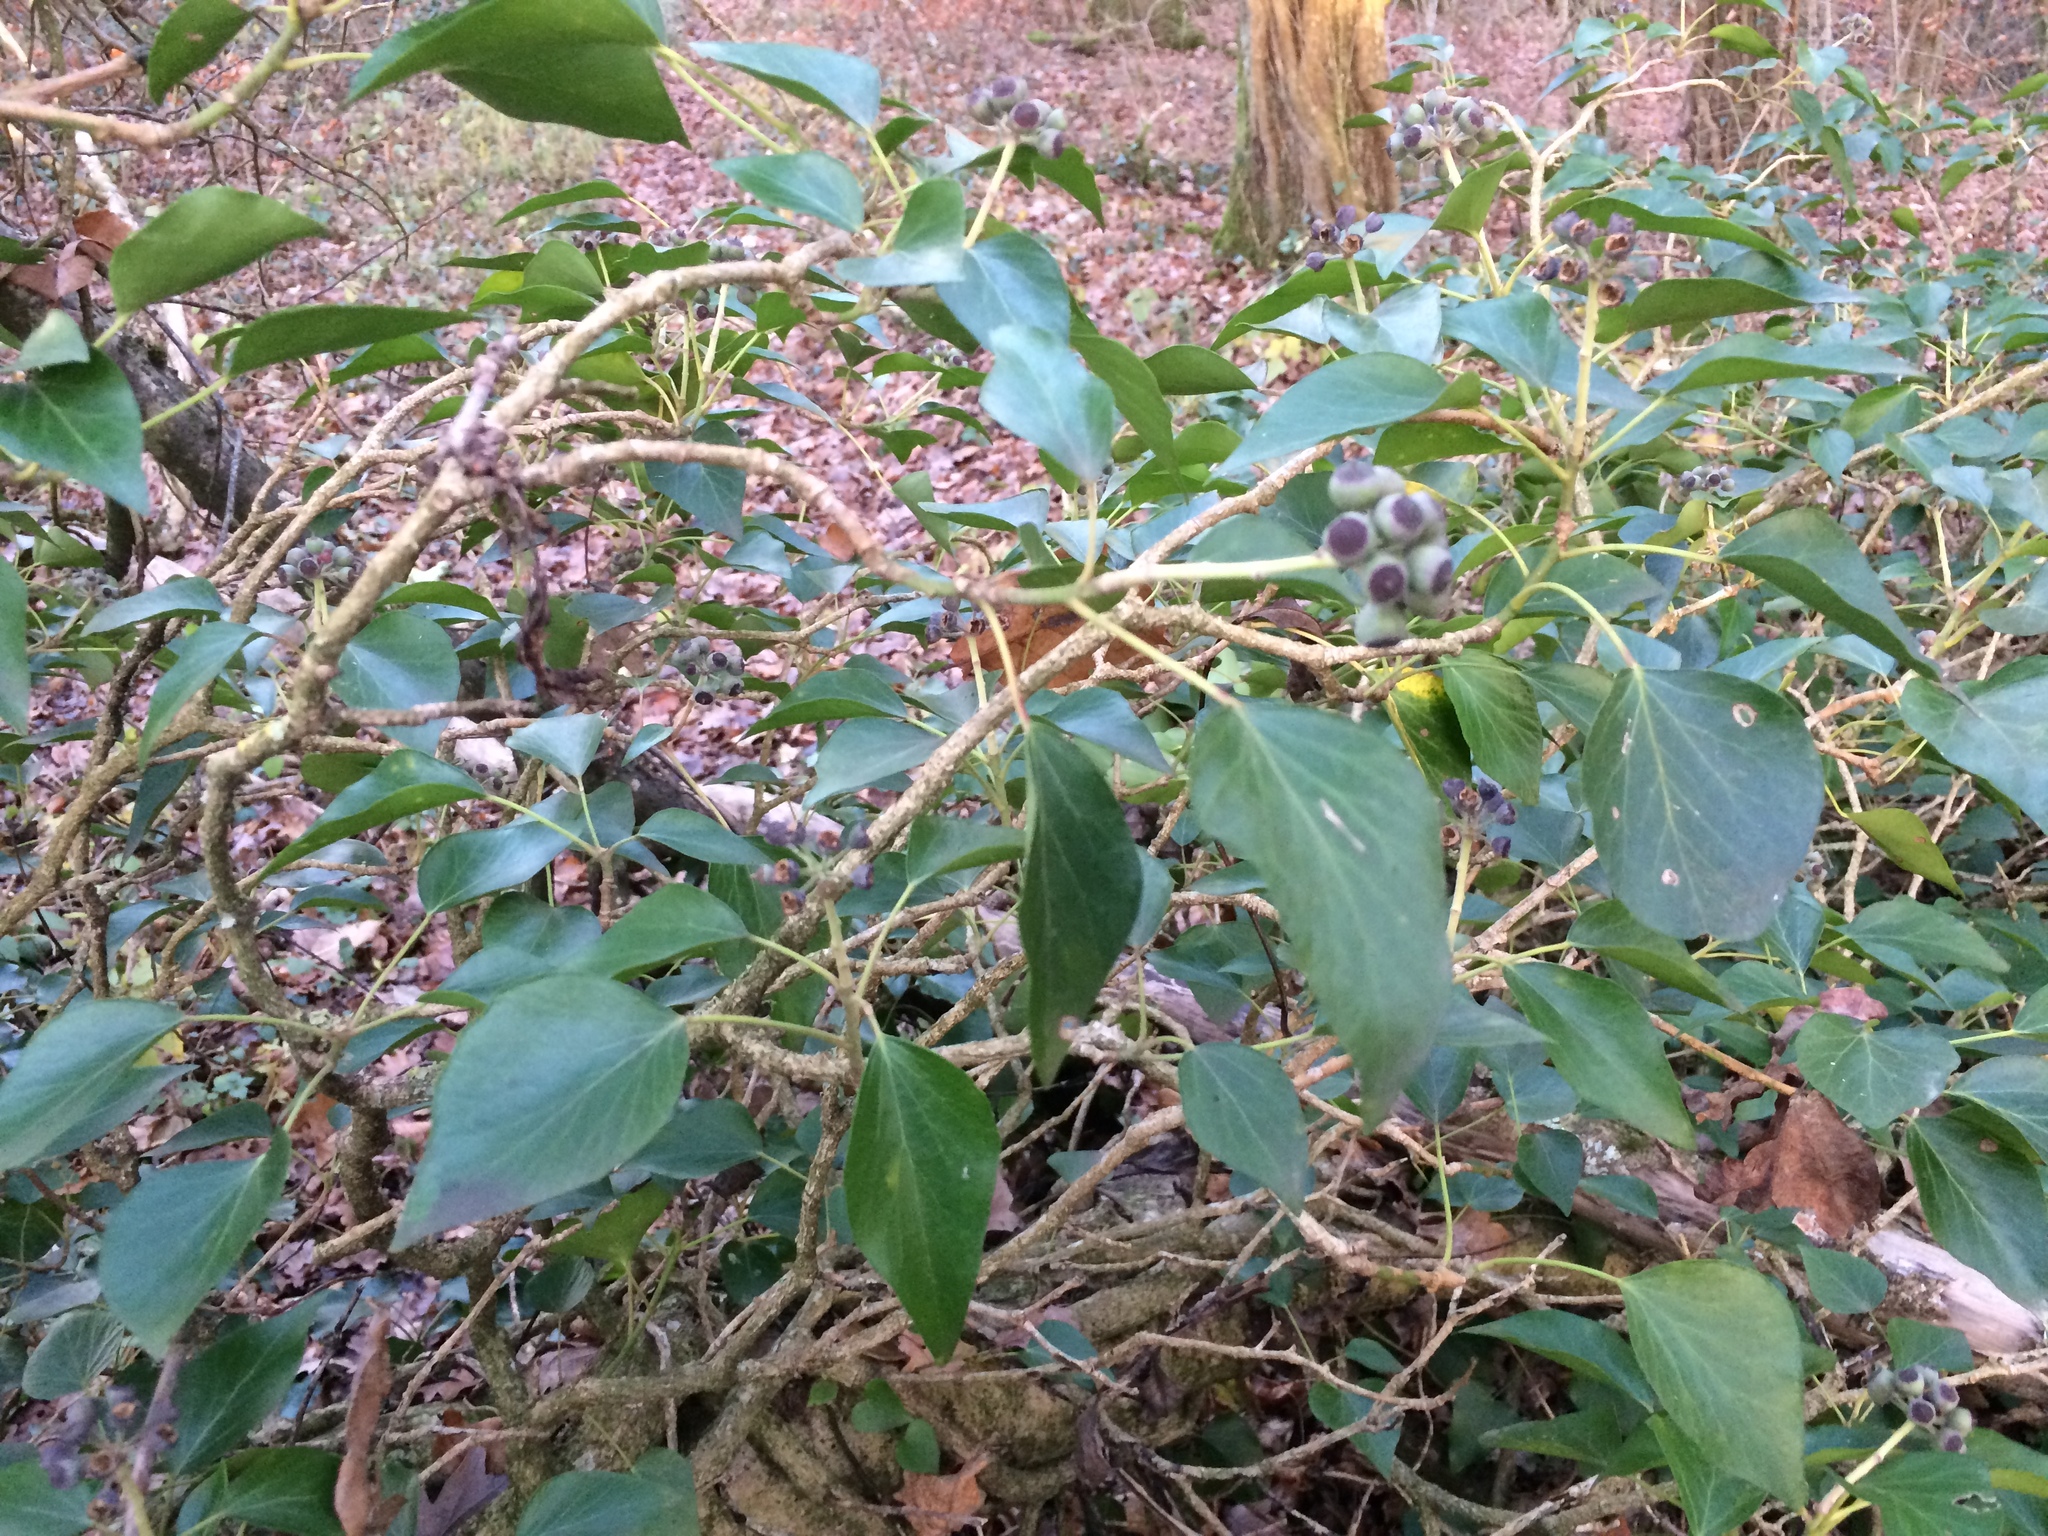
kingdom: Plantae
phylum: Tracheophyta
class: Magnoliopsida
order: Apiales
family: Araliaceae
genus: Hedera
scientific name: Hedera helix
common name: Ivy
